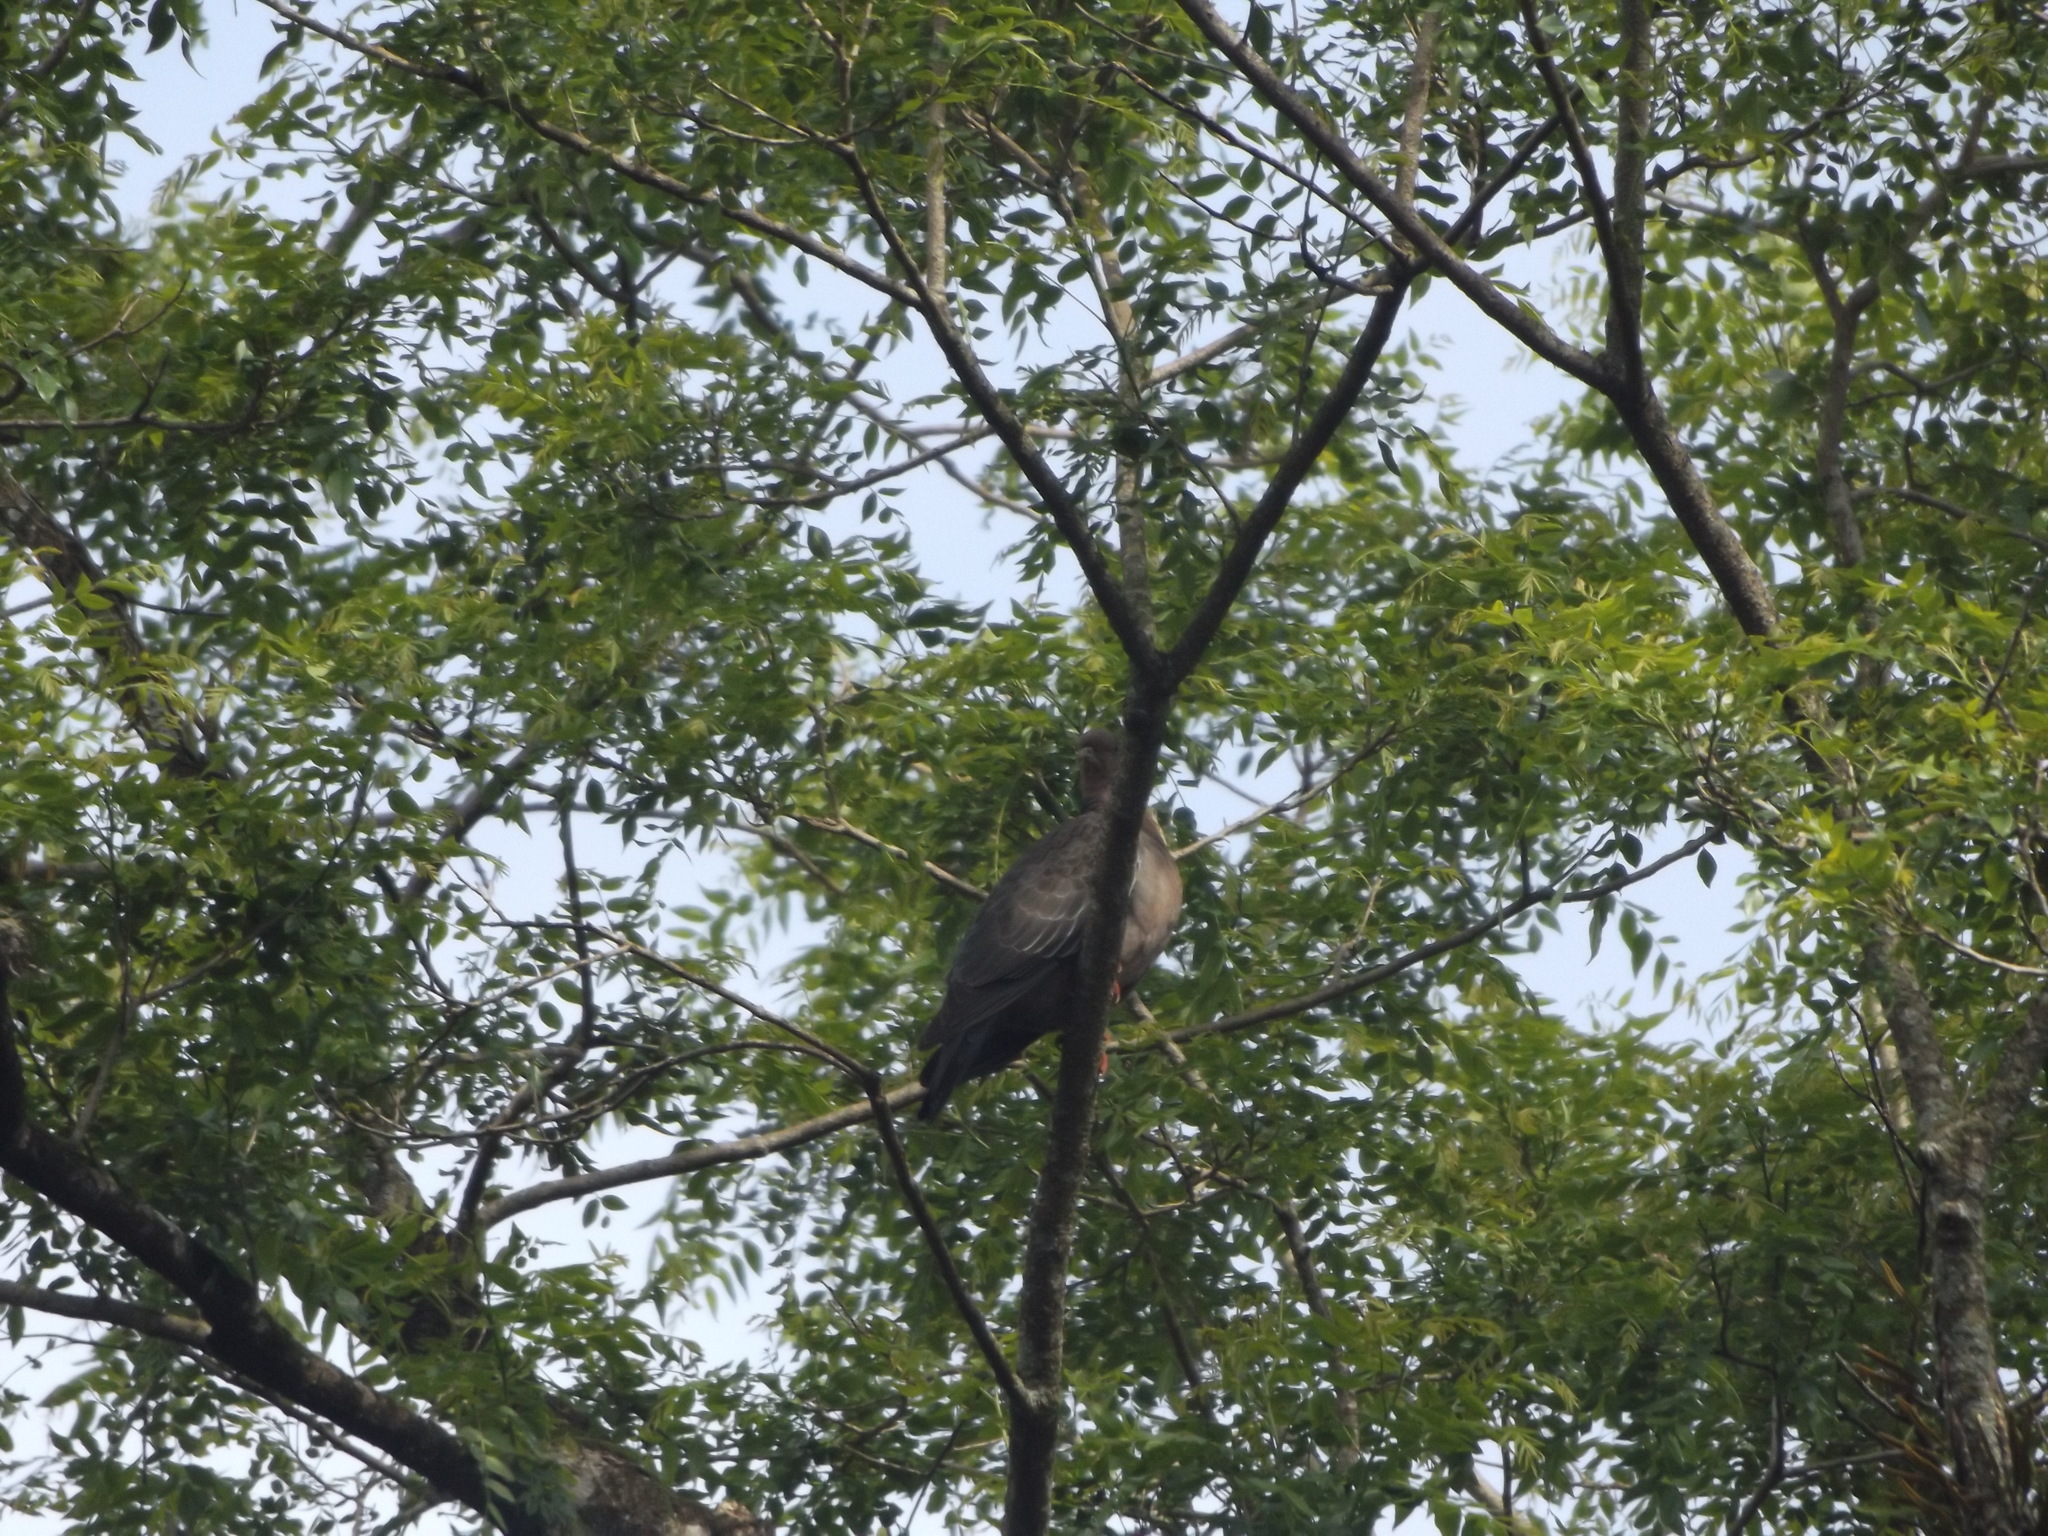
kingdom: Animalia
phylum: Chordata
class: Aves
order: Columbiformes
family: Columbidae
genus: Patagioenas
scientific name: Patagioenas picazuro
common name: Picazuro pigeon
